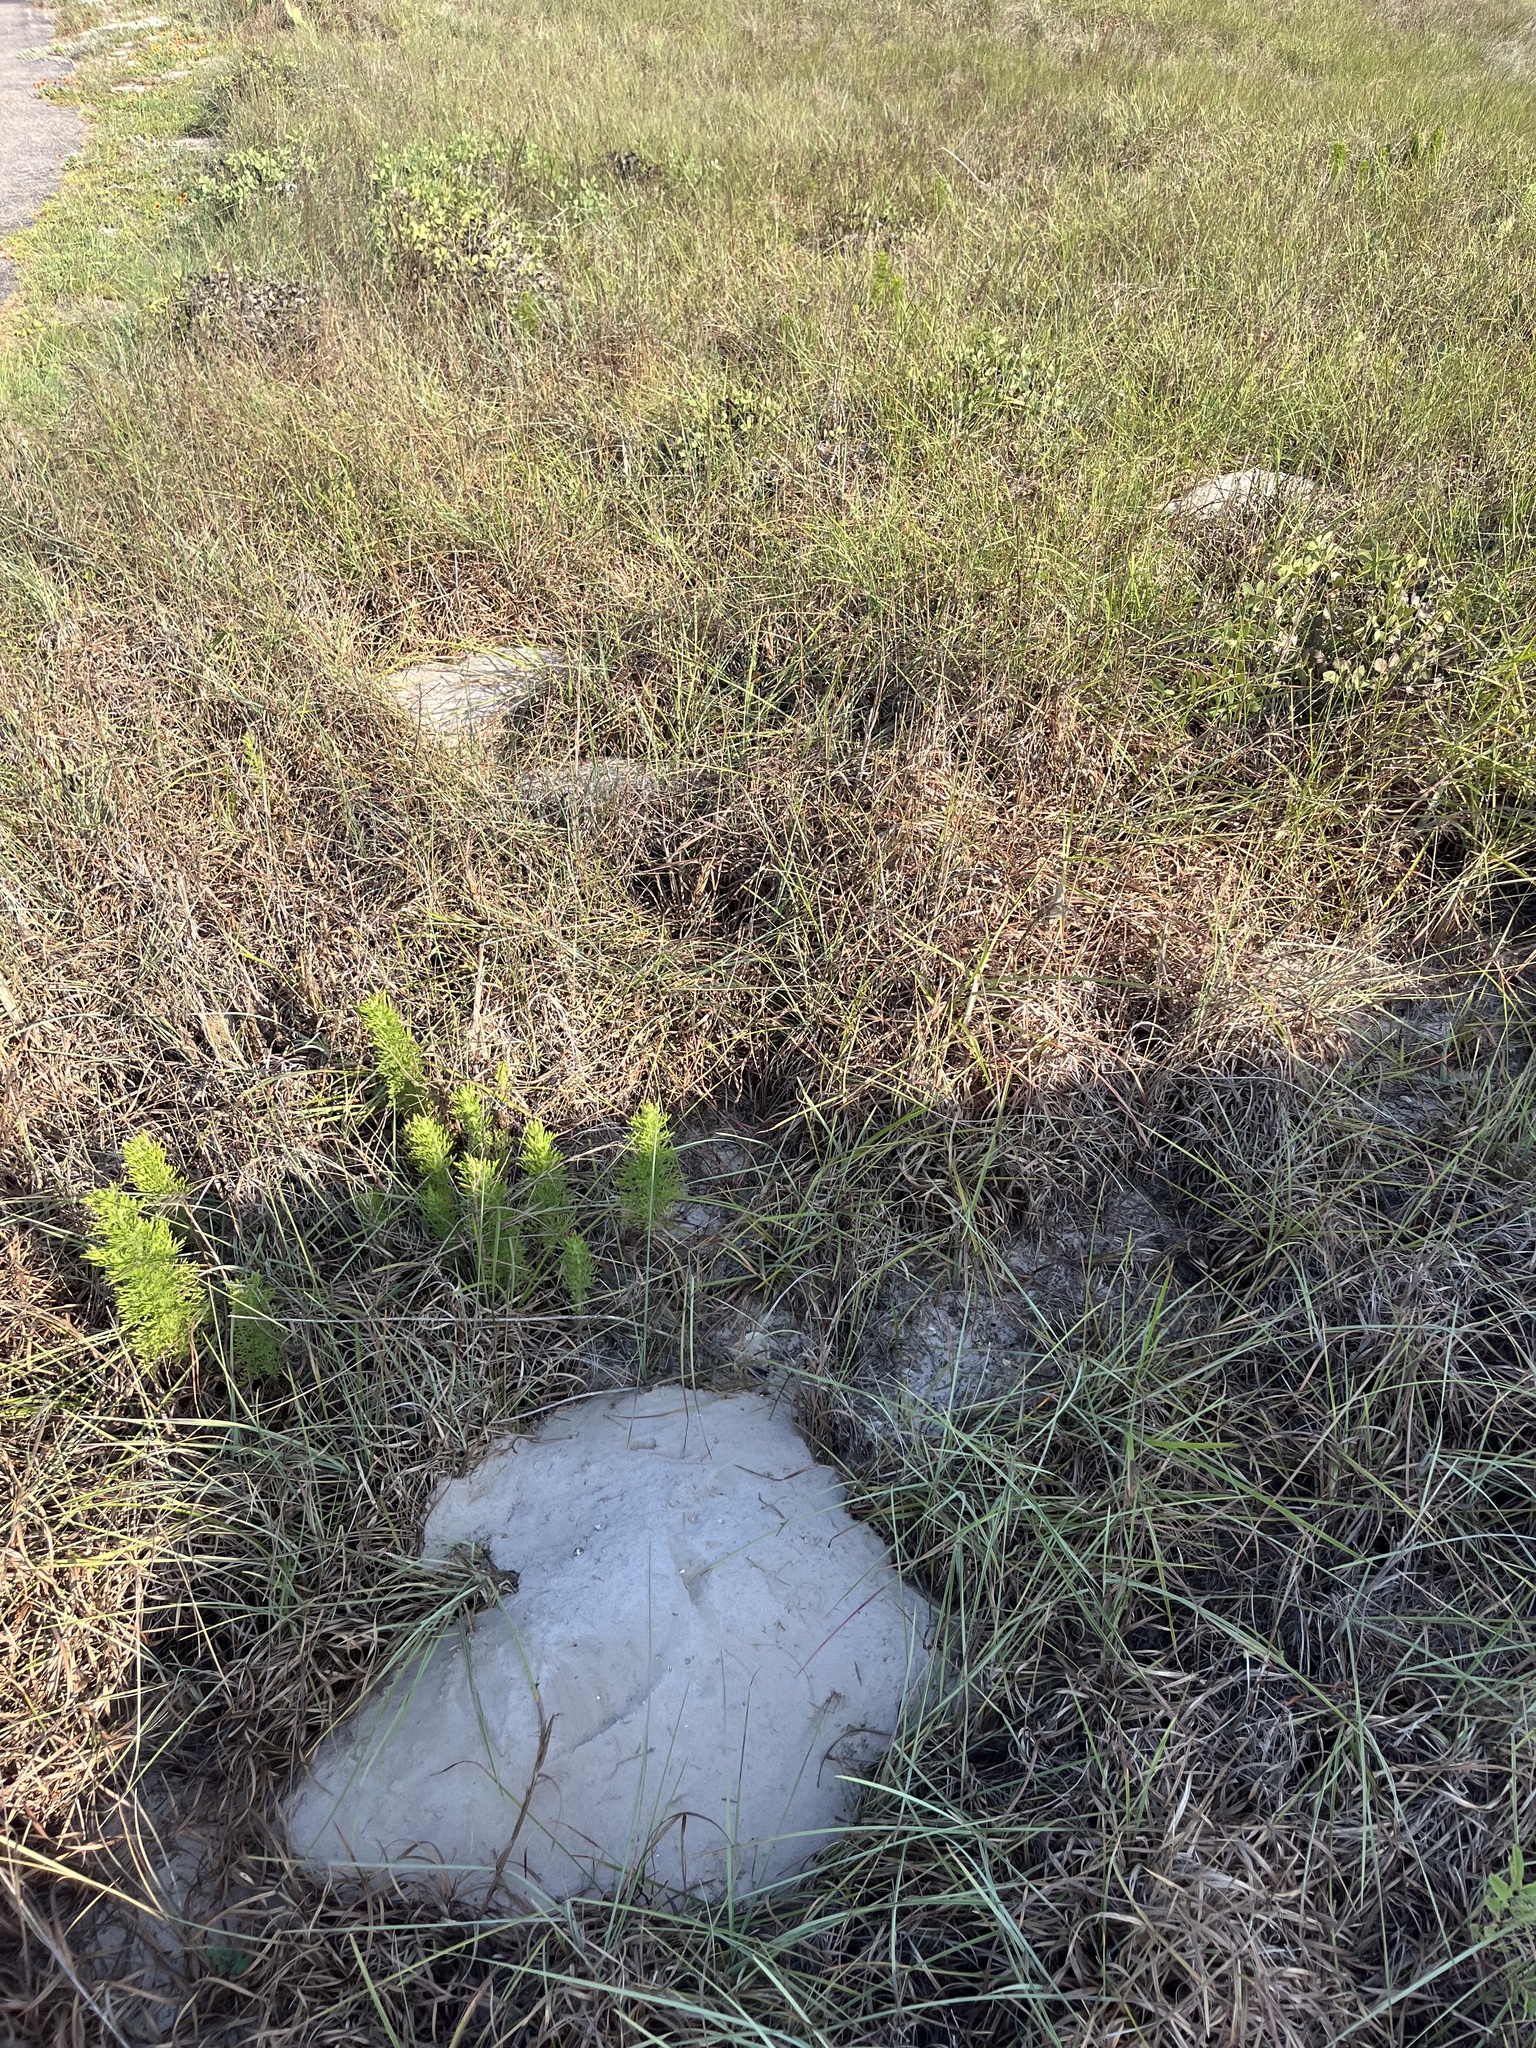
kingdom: Animalia
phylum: Chordata
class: Mammalia
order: Rodentia
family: Geomyidae
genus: Geomys
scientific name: Geomys personatus
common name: Texas pocket gopher
